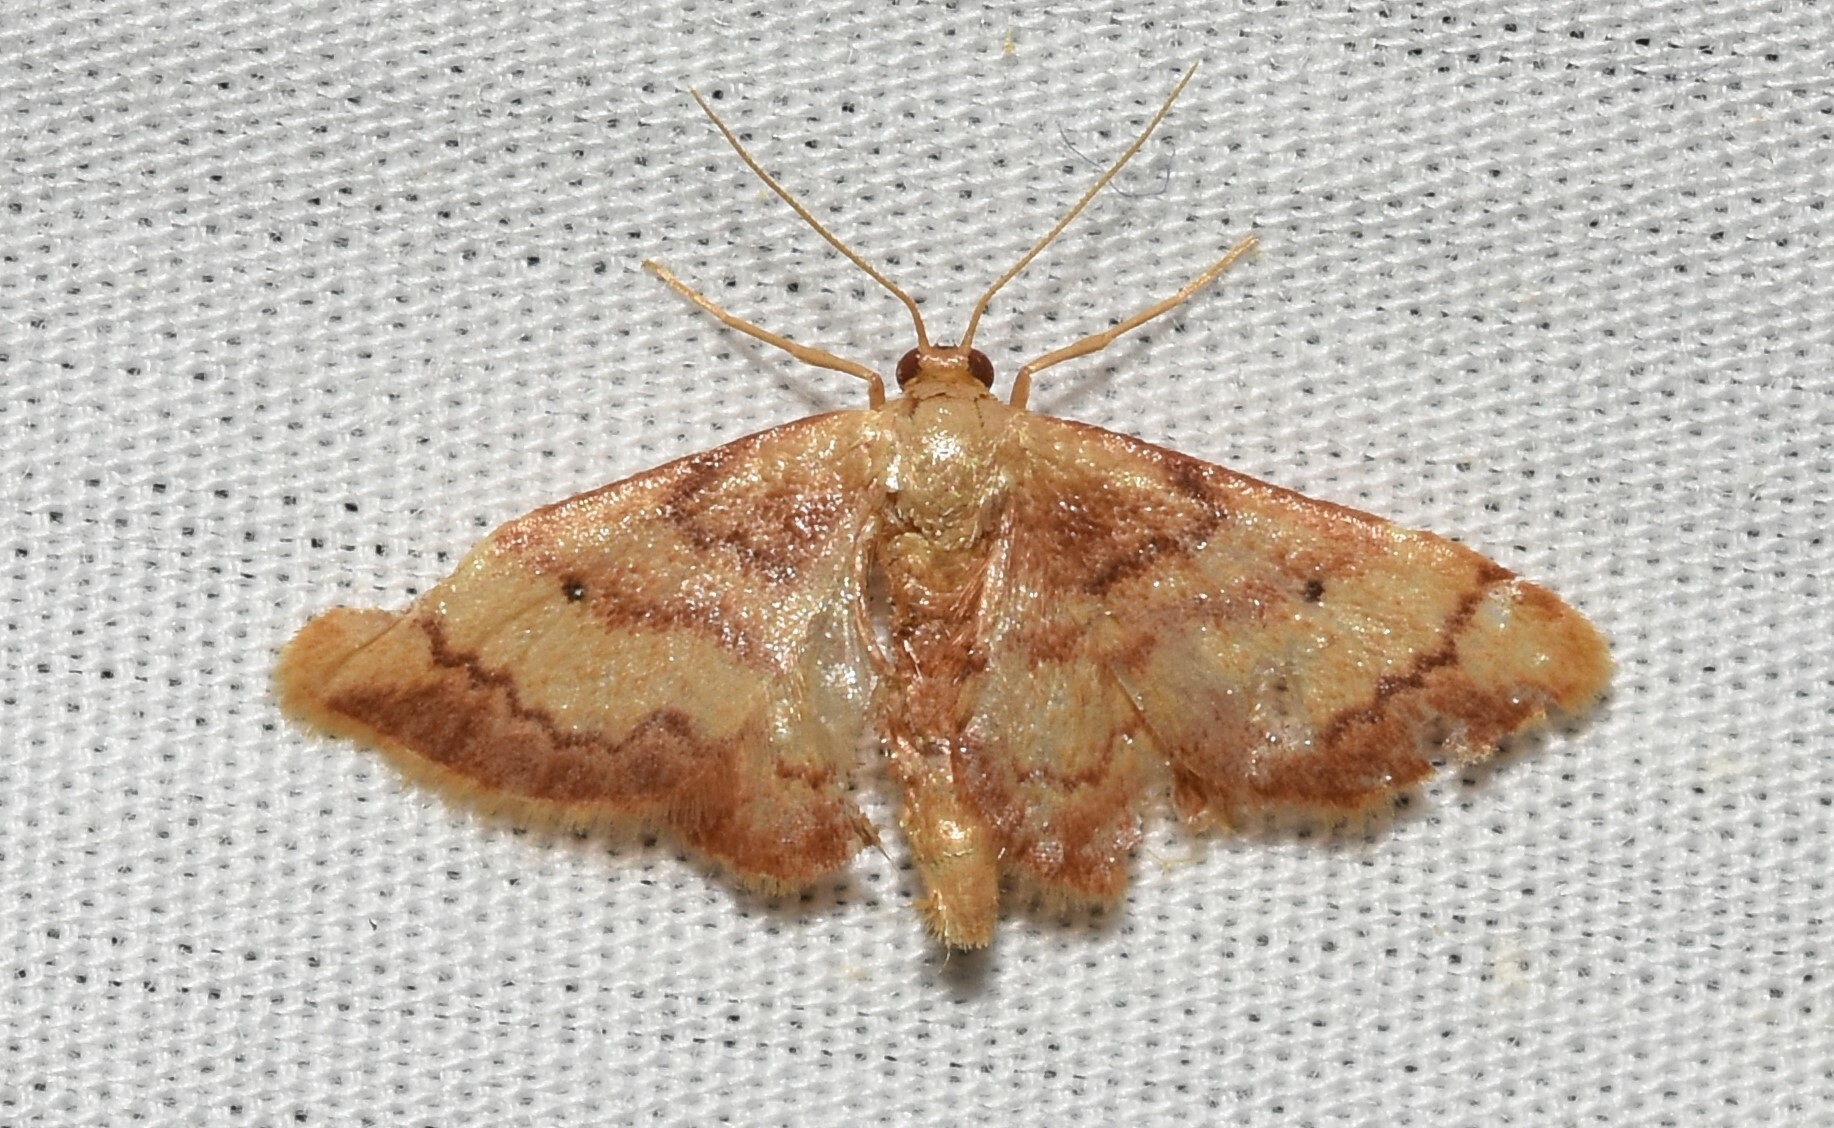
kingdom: Animalia
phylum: Arthropoda
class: Insecta
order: Lepidoptera
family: Geometridae
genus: Idaea
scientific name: Idaea demissaria
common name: Red-bordered wave
